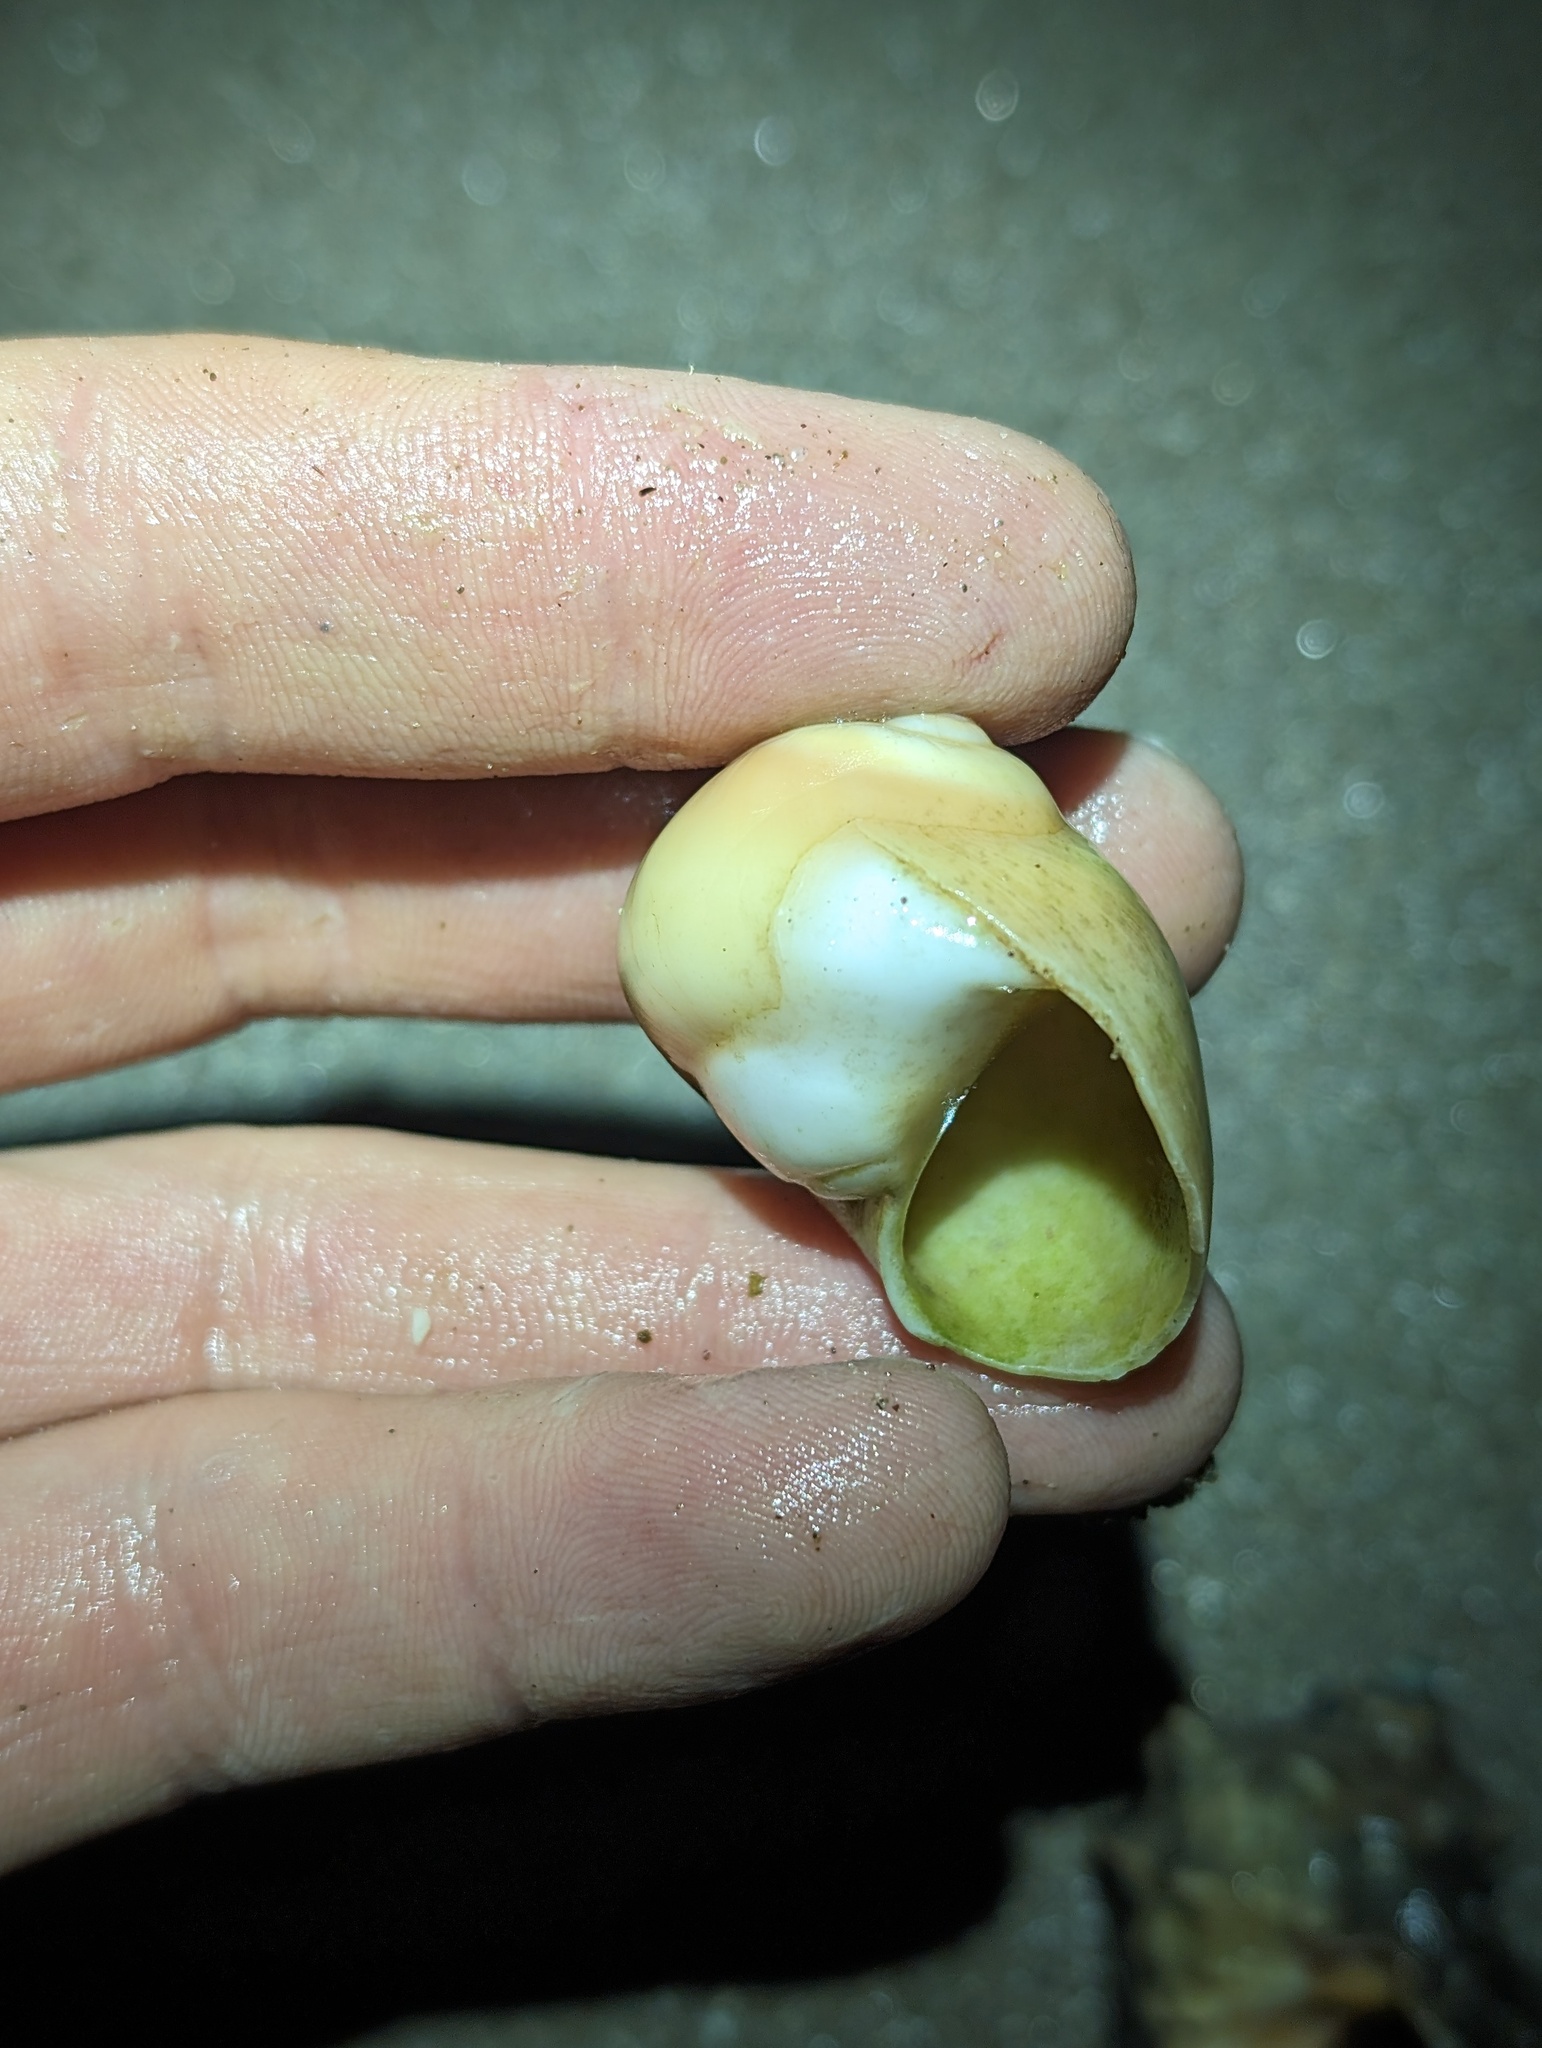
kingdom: Animalia
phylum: Mollusca
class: Gastropoda
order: Littorinimorpha
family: Naticidae
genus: Glossaulax
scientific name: Glossaulax reclusiana
